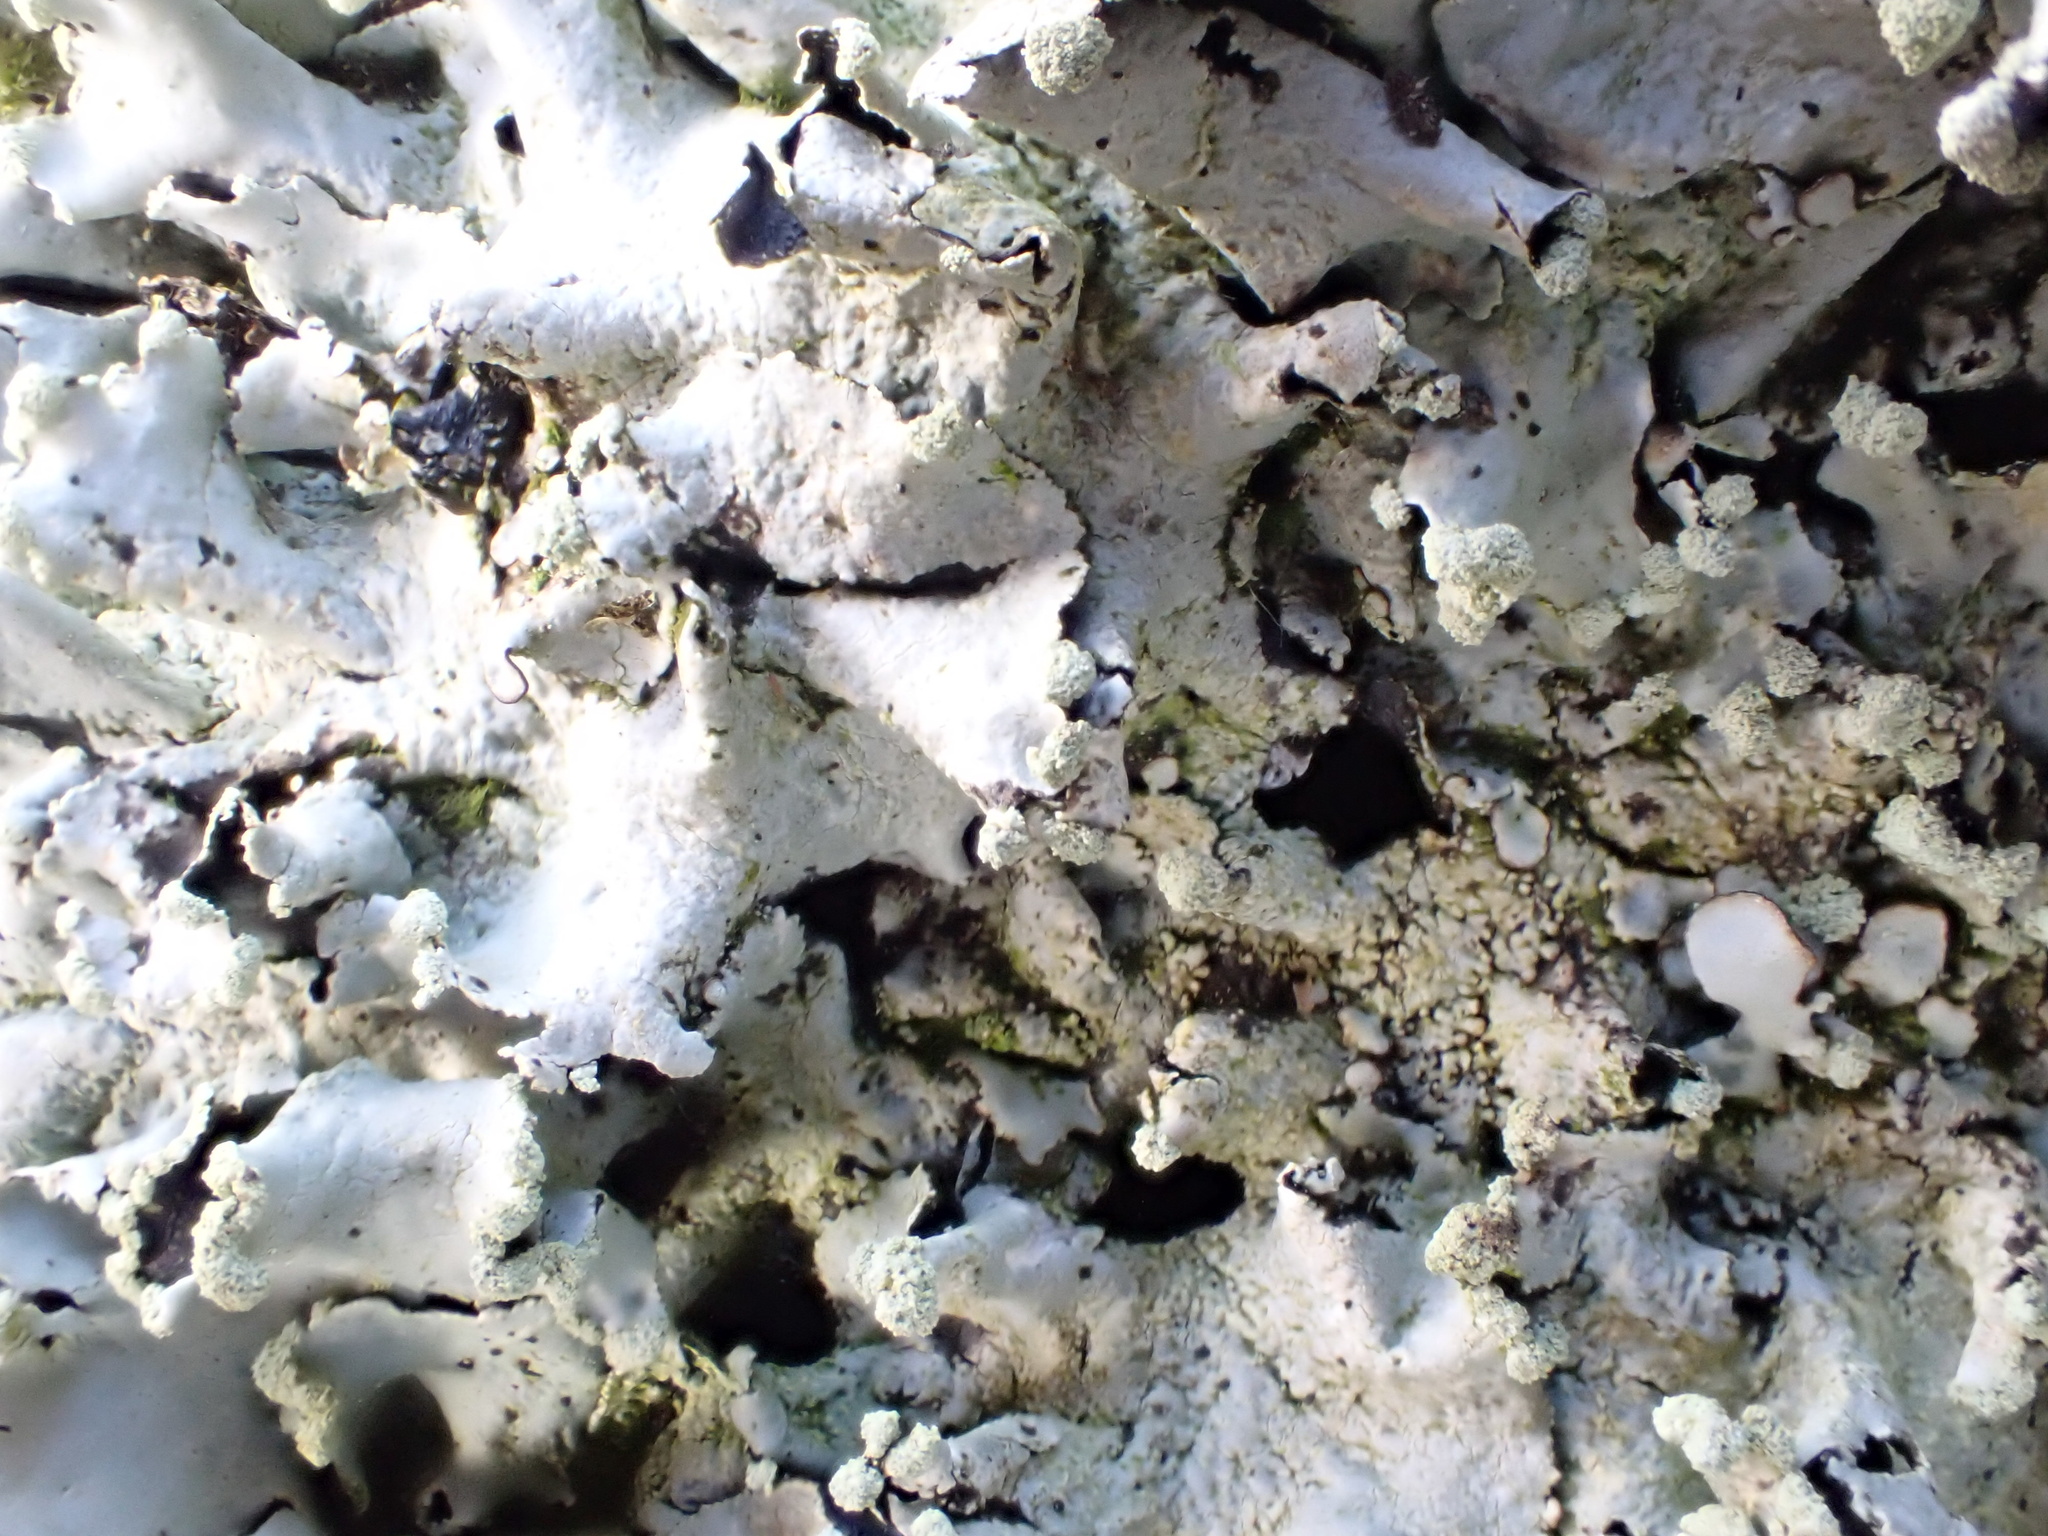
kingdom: Fungi
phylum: Ascomycota
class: Lecanoromycetes
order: Lecanorales
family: Parmeliaceae
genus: Parmotrema
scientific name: Parmotrema perlatum
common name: Black stone flower
